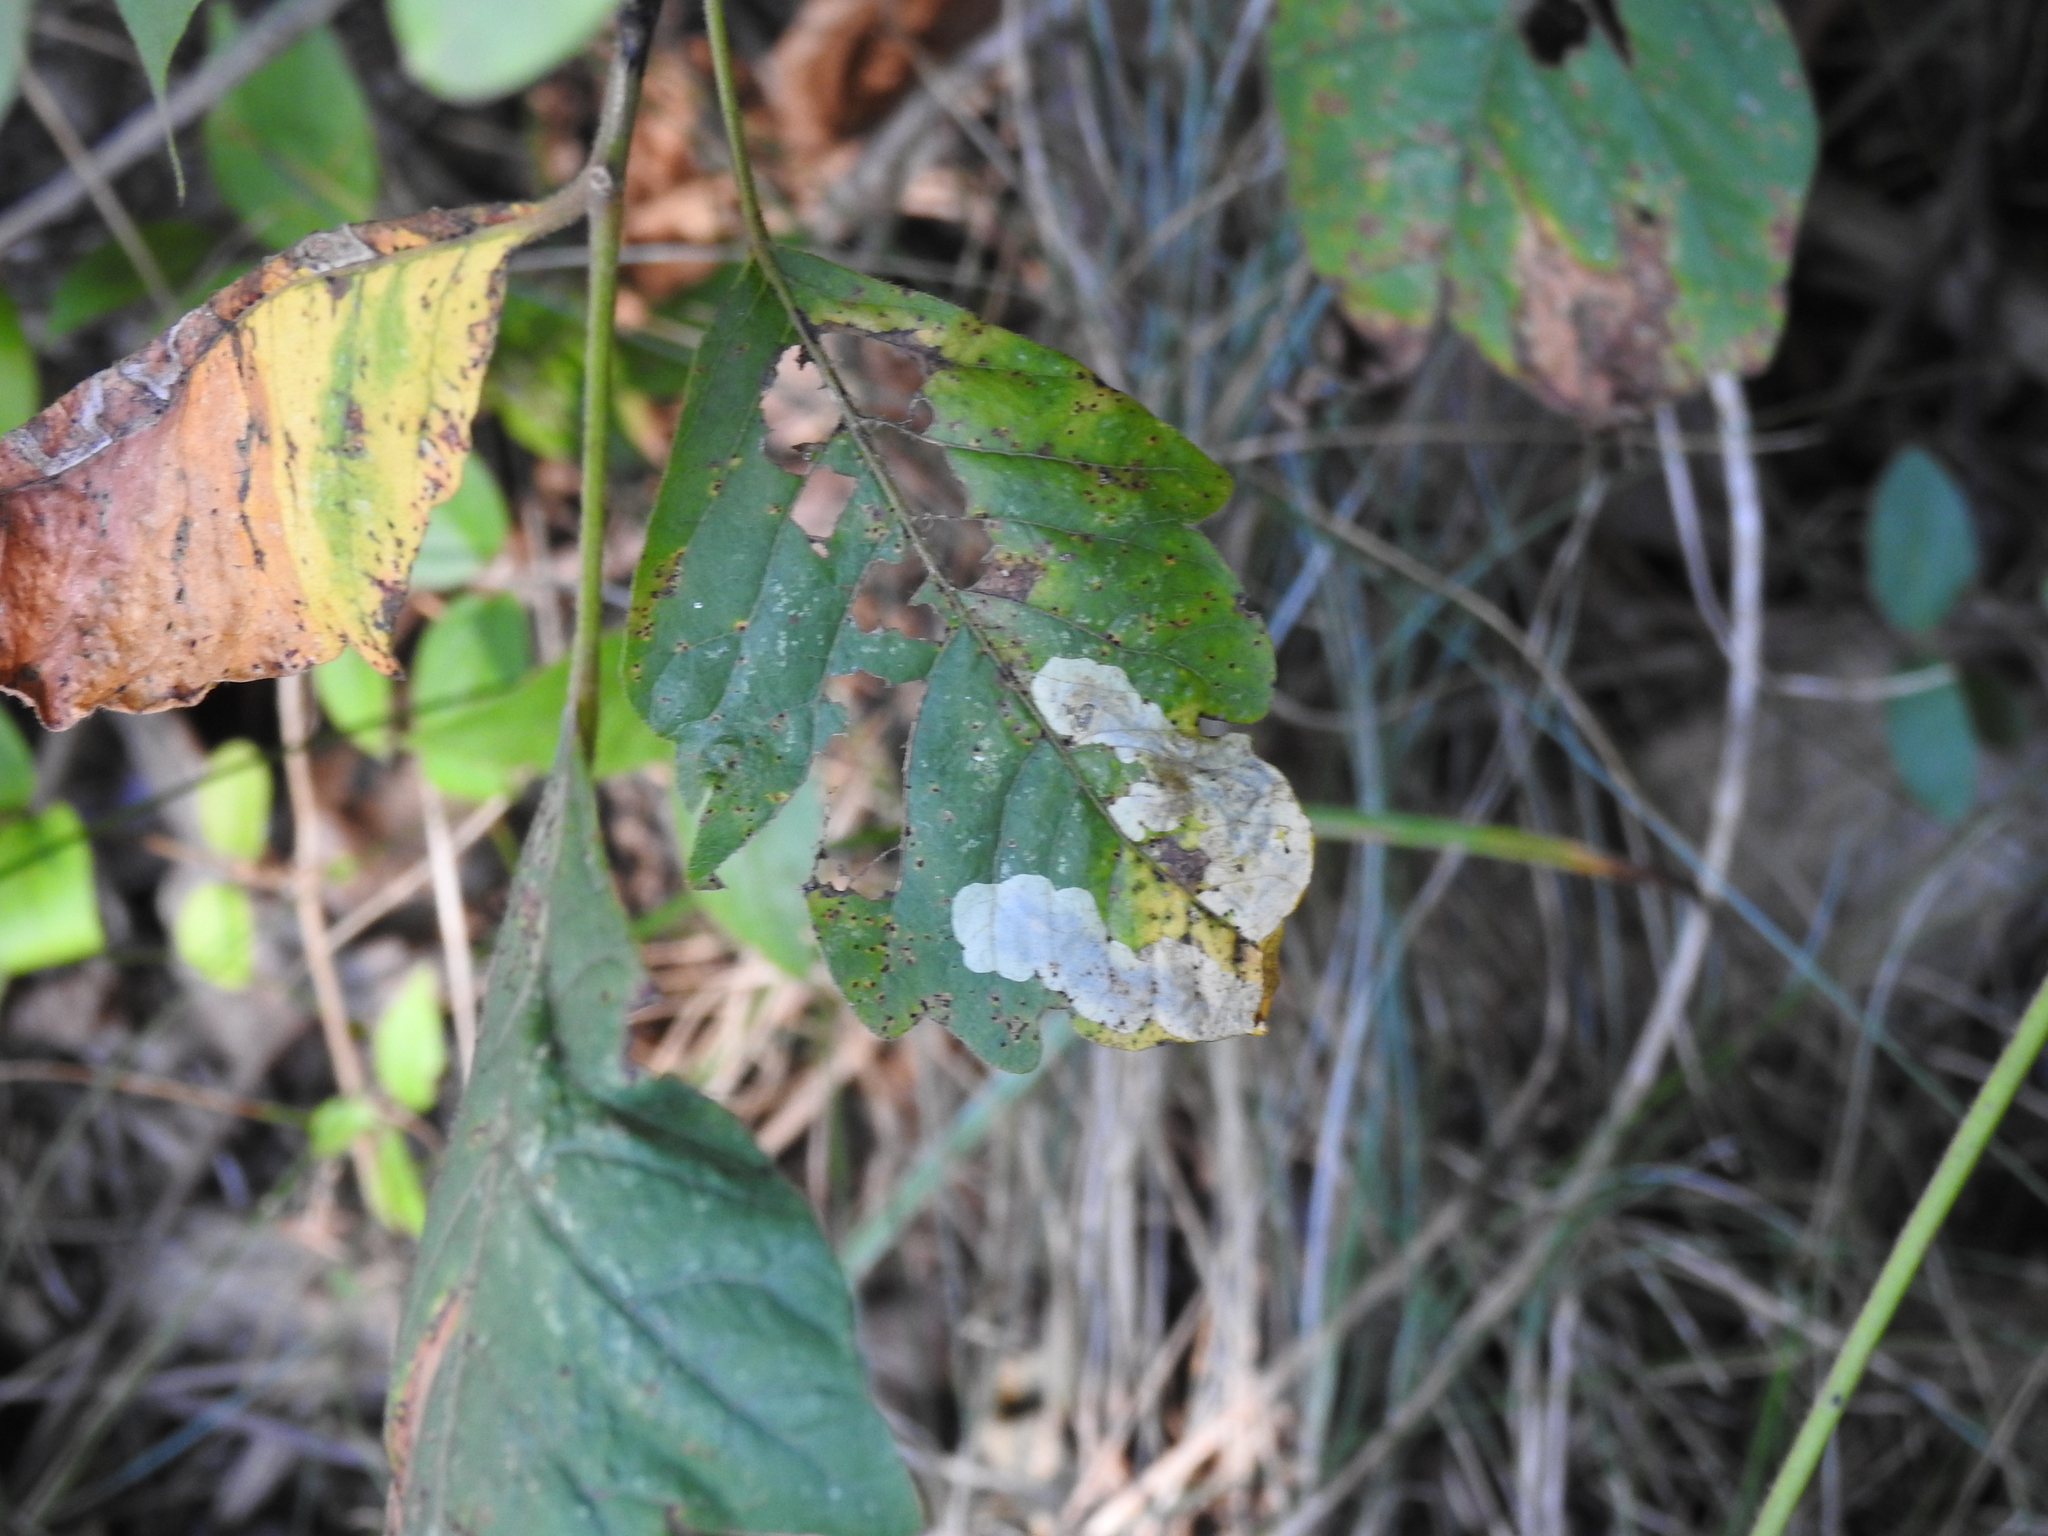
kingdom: Animalia
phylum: Arthropoda
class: Insecta
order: Lepidoptera
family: Gracillariidae
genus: Cameraria
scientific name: Cameraria guttifinitella
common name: Poison ivy leaf-miner moth
